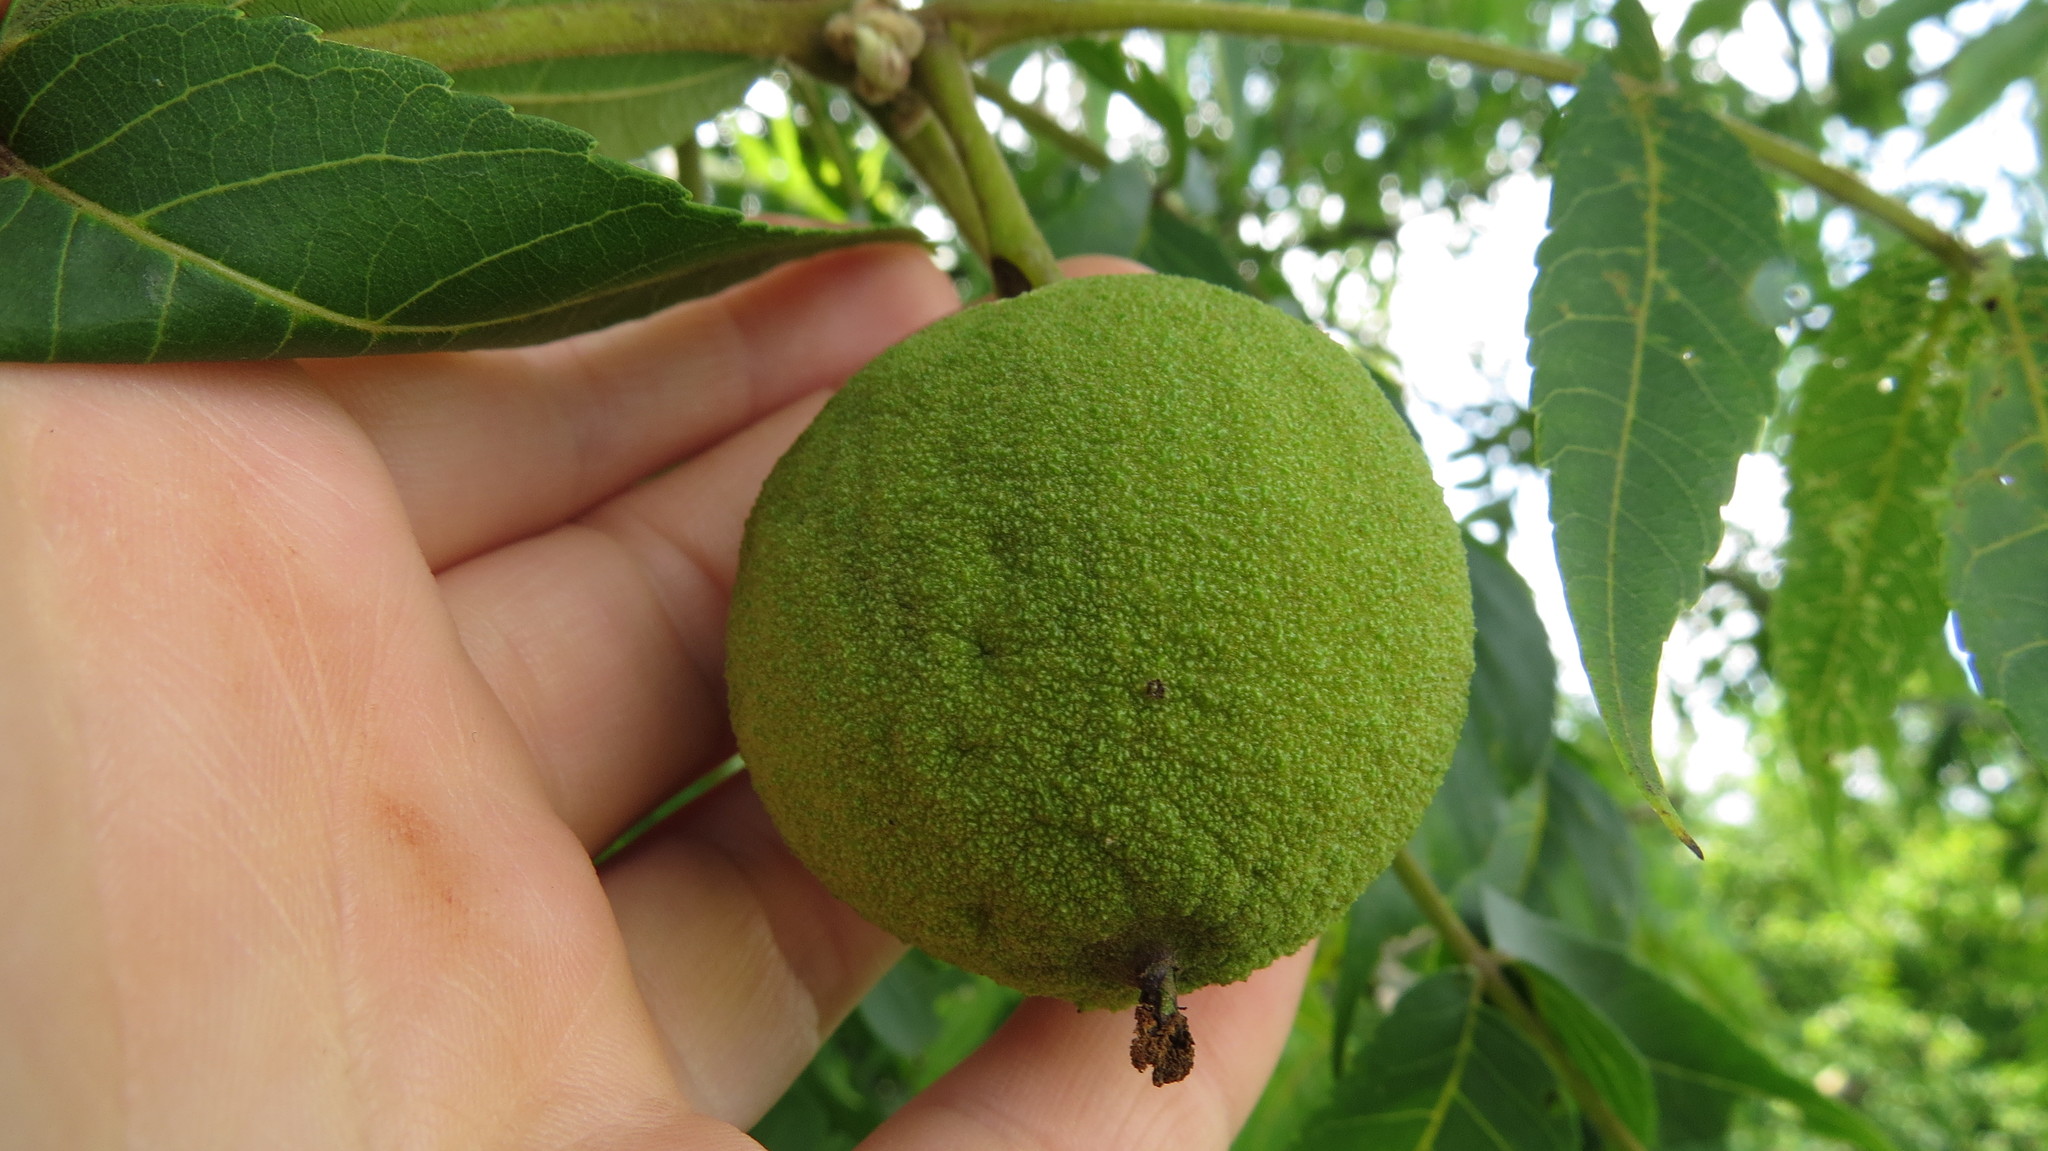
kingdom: Plantae
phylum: Tracheophyta
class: Magnoliopsida
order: Fagales
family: Juglandaceae
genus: Juglans
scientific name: Juglans nigra
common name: Black walnut
